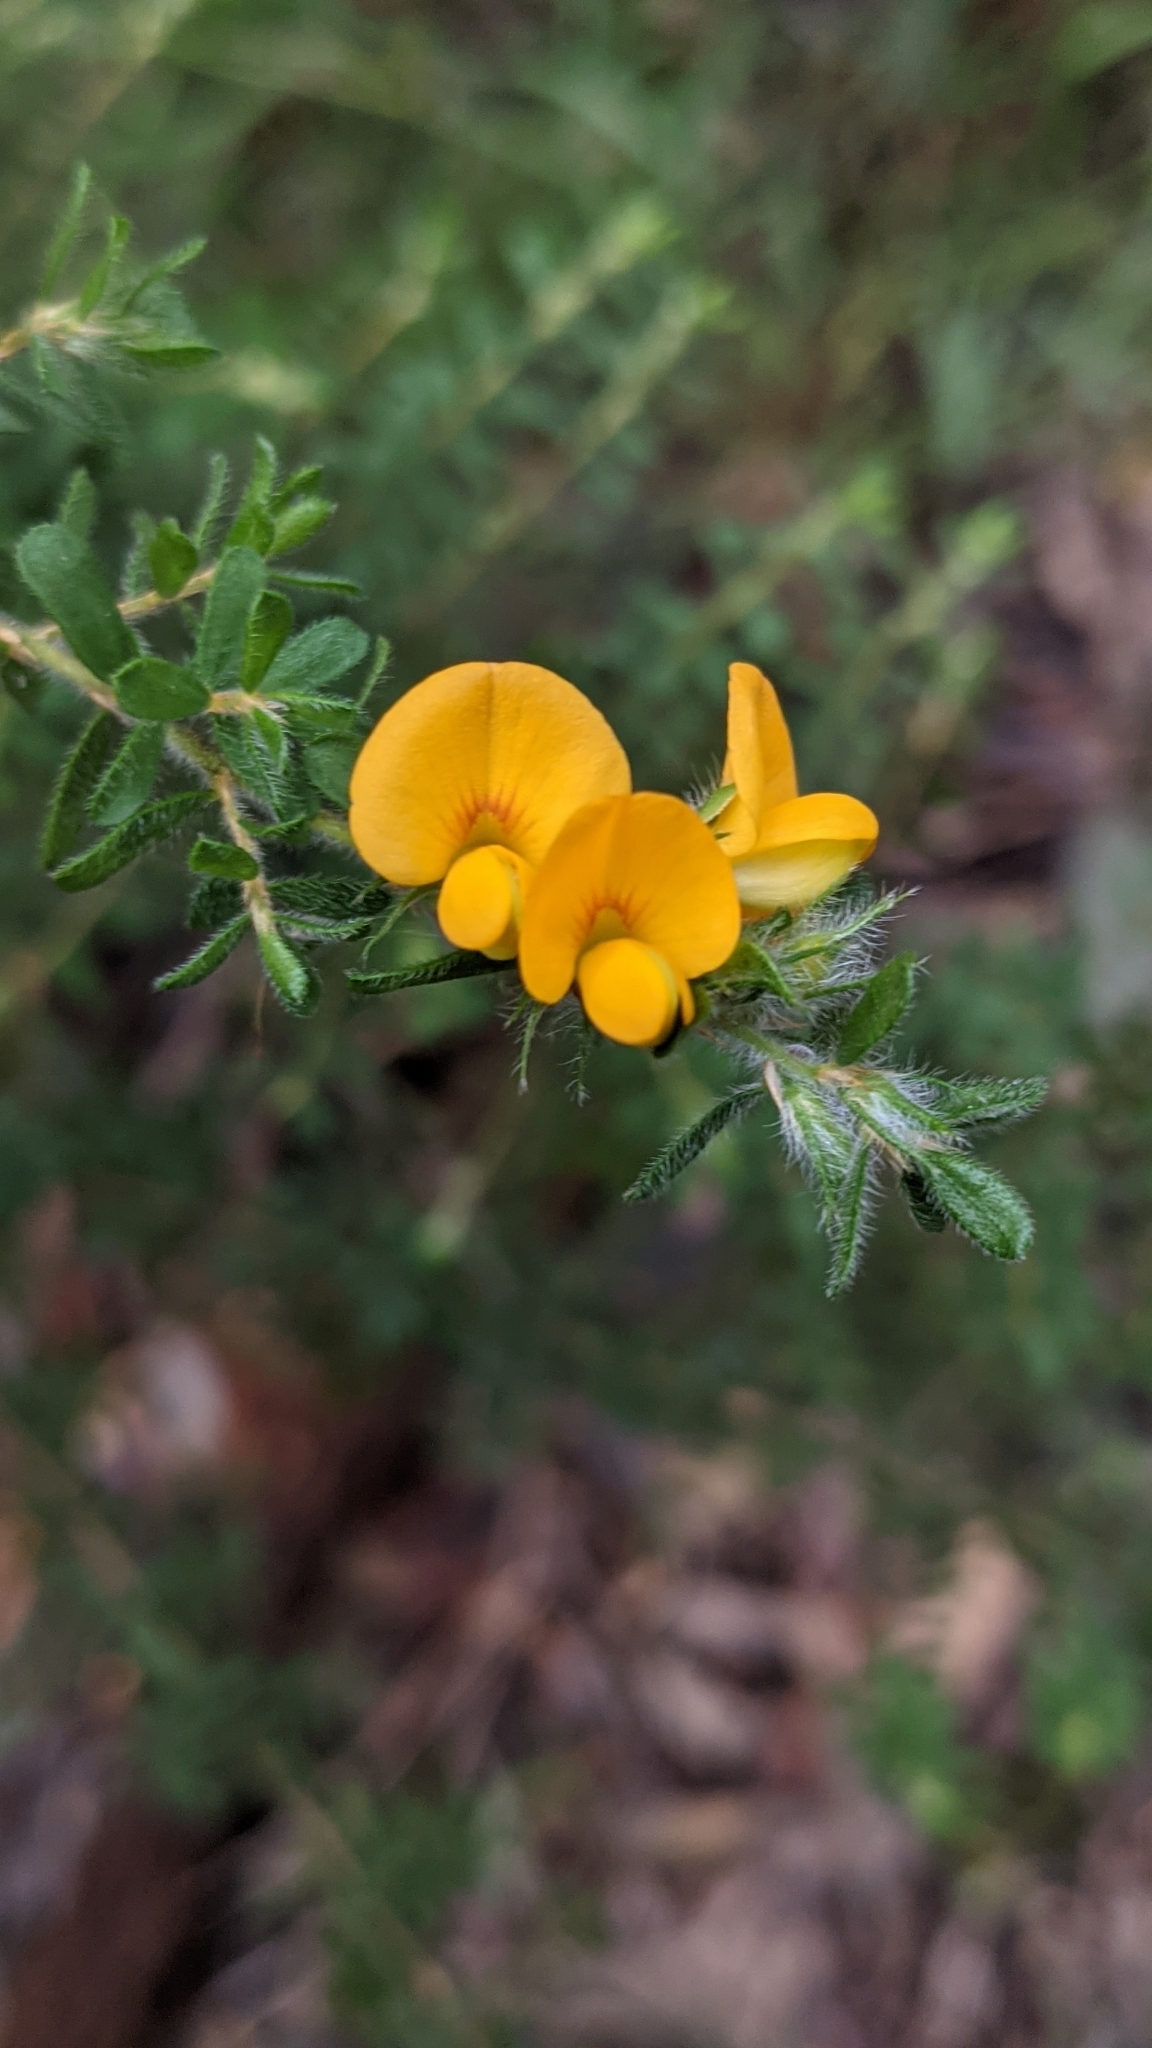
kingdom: Plantae
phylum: Tracheophyta
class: Magnoliopsida
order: Fabales
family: Fabaceae
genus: Pultenaea
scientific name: Pultenaea villosa
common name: Bronze bush-pea
